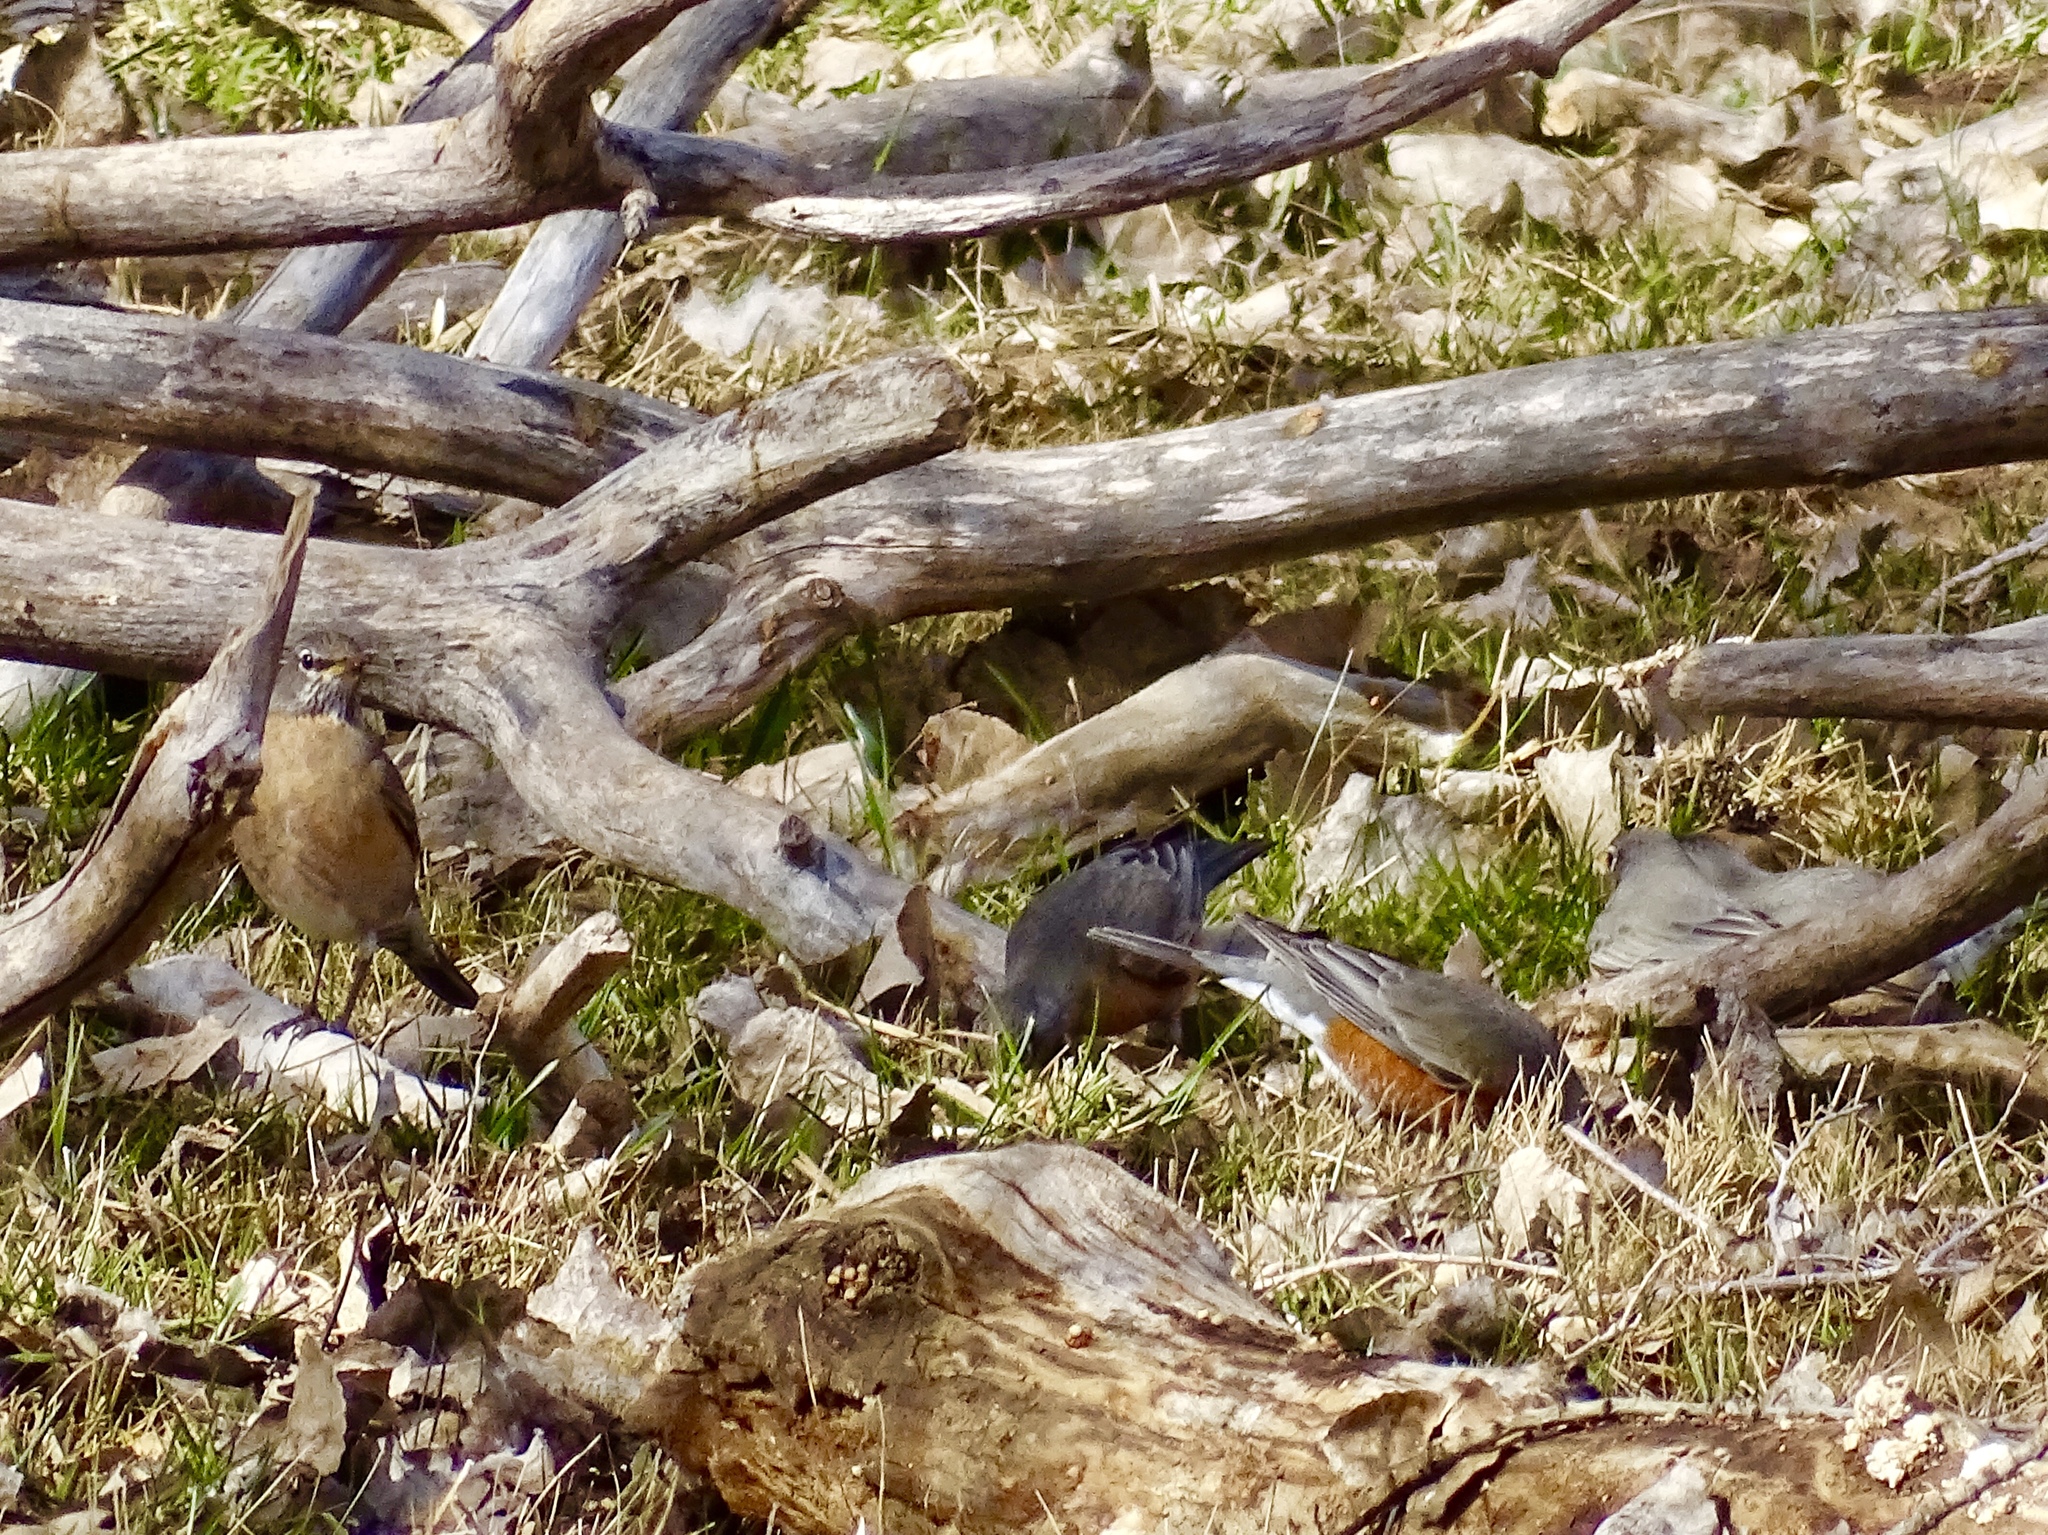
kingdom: Animalia
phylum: Chordata
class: Aves
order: Passeriformes
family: Turdidae
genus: Turdus
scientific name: Turdus migratorius
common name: American robin
